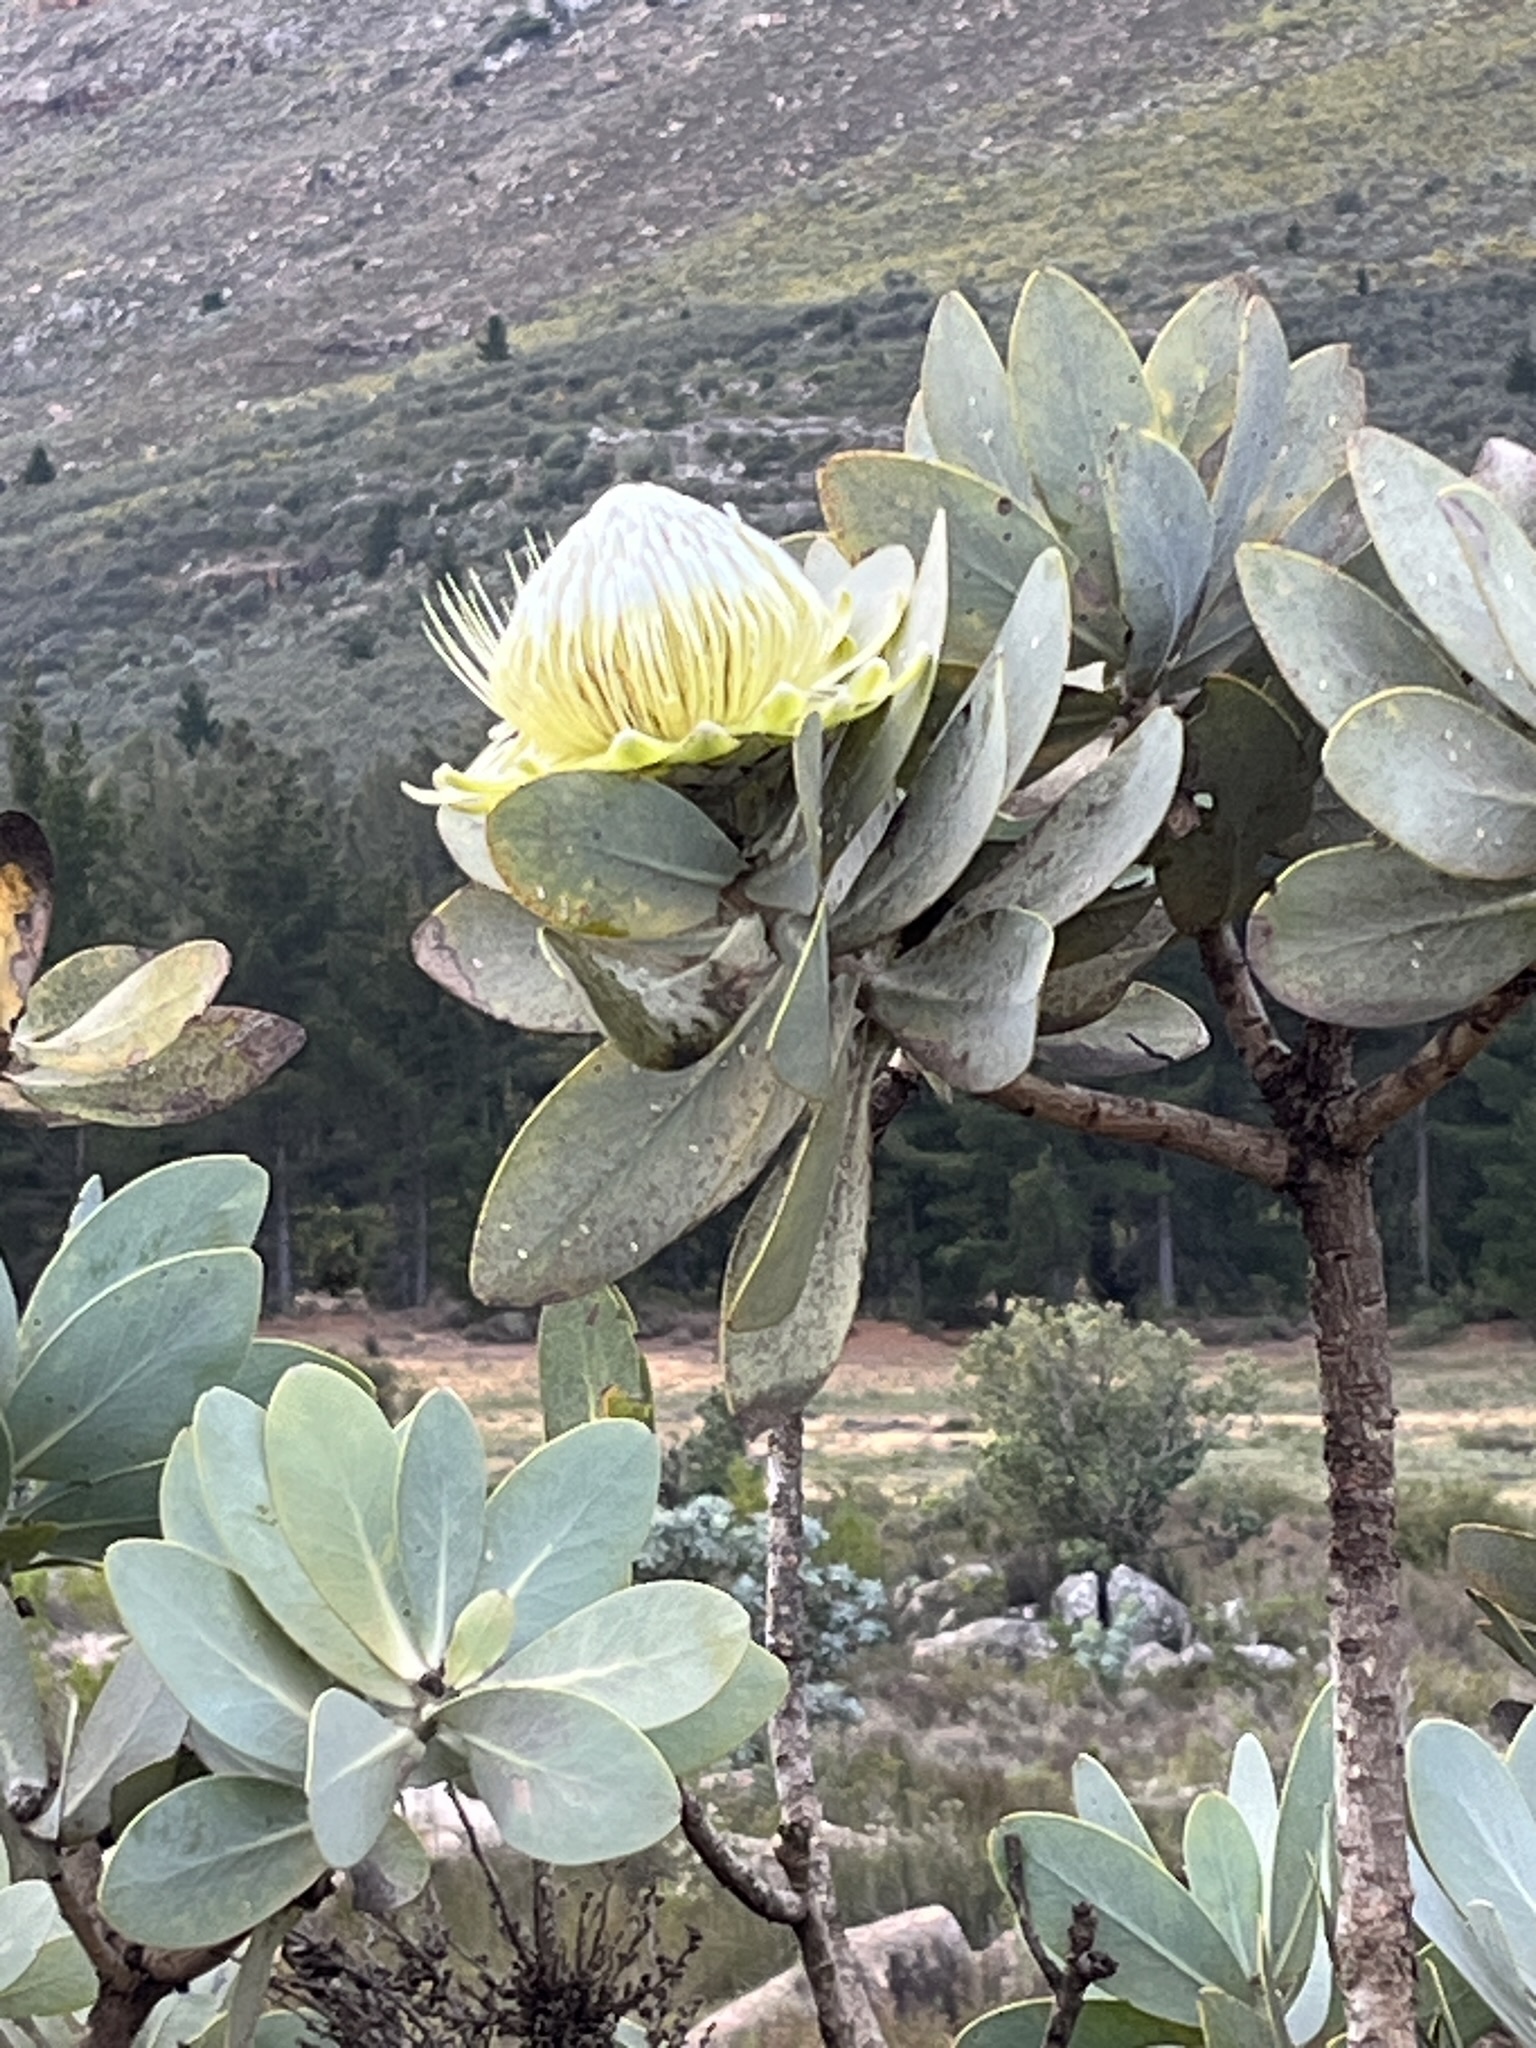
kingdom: Plantae
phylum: Tracheophyta
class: Magnoliopsida
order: Proteales
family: Proteaceae
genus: Protea
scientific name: Protea nitida
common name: Tree protea
